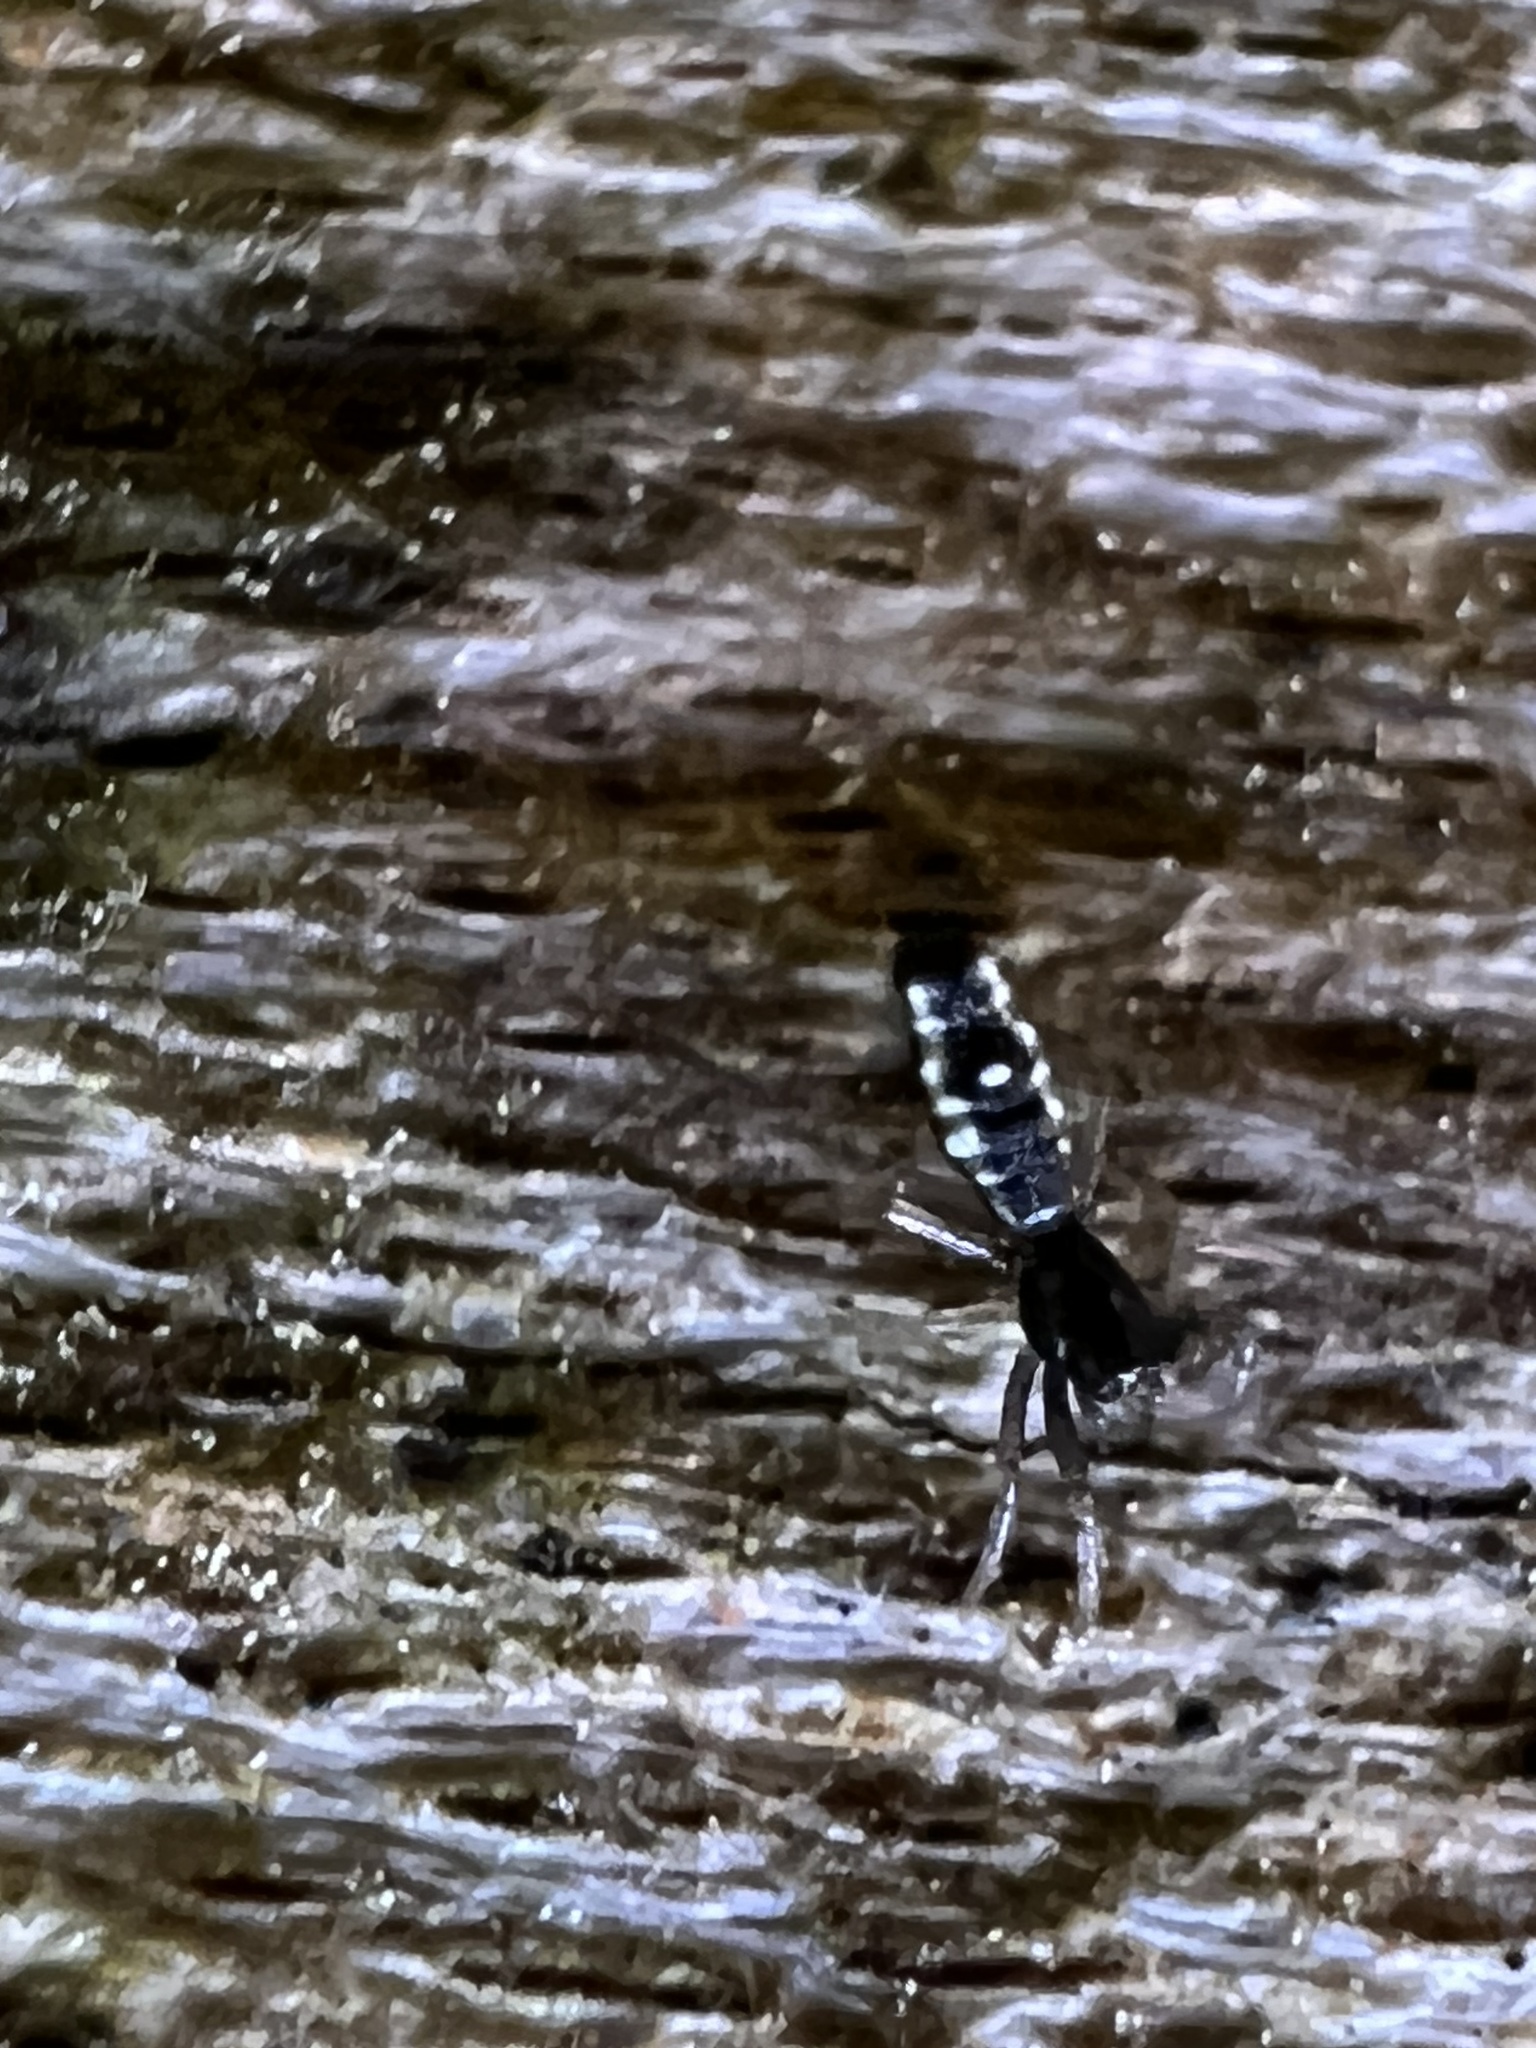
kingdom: Animalia
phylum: Arthropoda
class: Arachnida
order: Araneae
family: Araneidae
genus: Micrathena
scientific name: Micrathena gracilis
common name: Orb weavers
